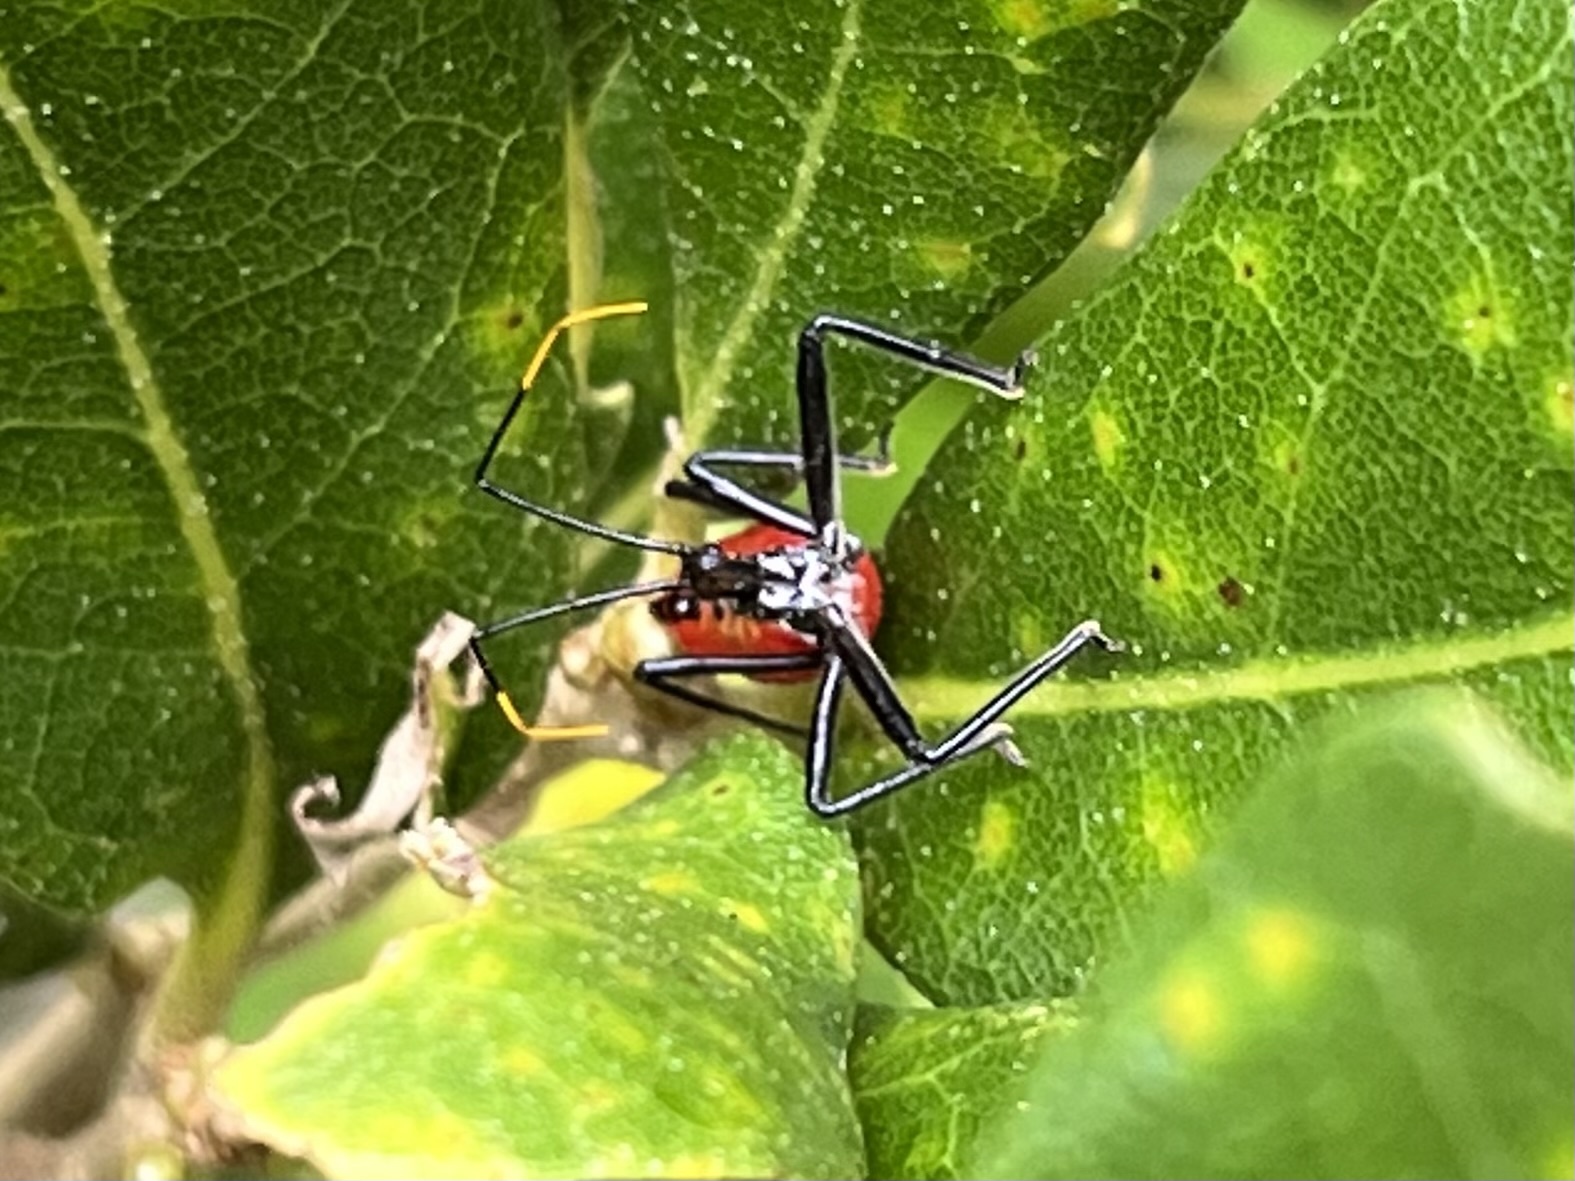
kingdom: Animalia
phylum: Arthropoda
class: Insecta
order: Hemiptera
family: Reduviidae
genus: Arilus
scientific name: Arilus cristatus
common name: North american wheel bug
